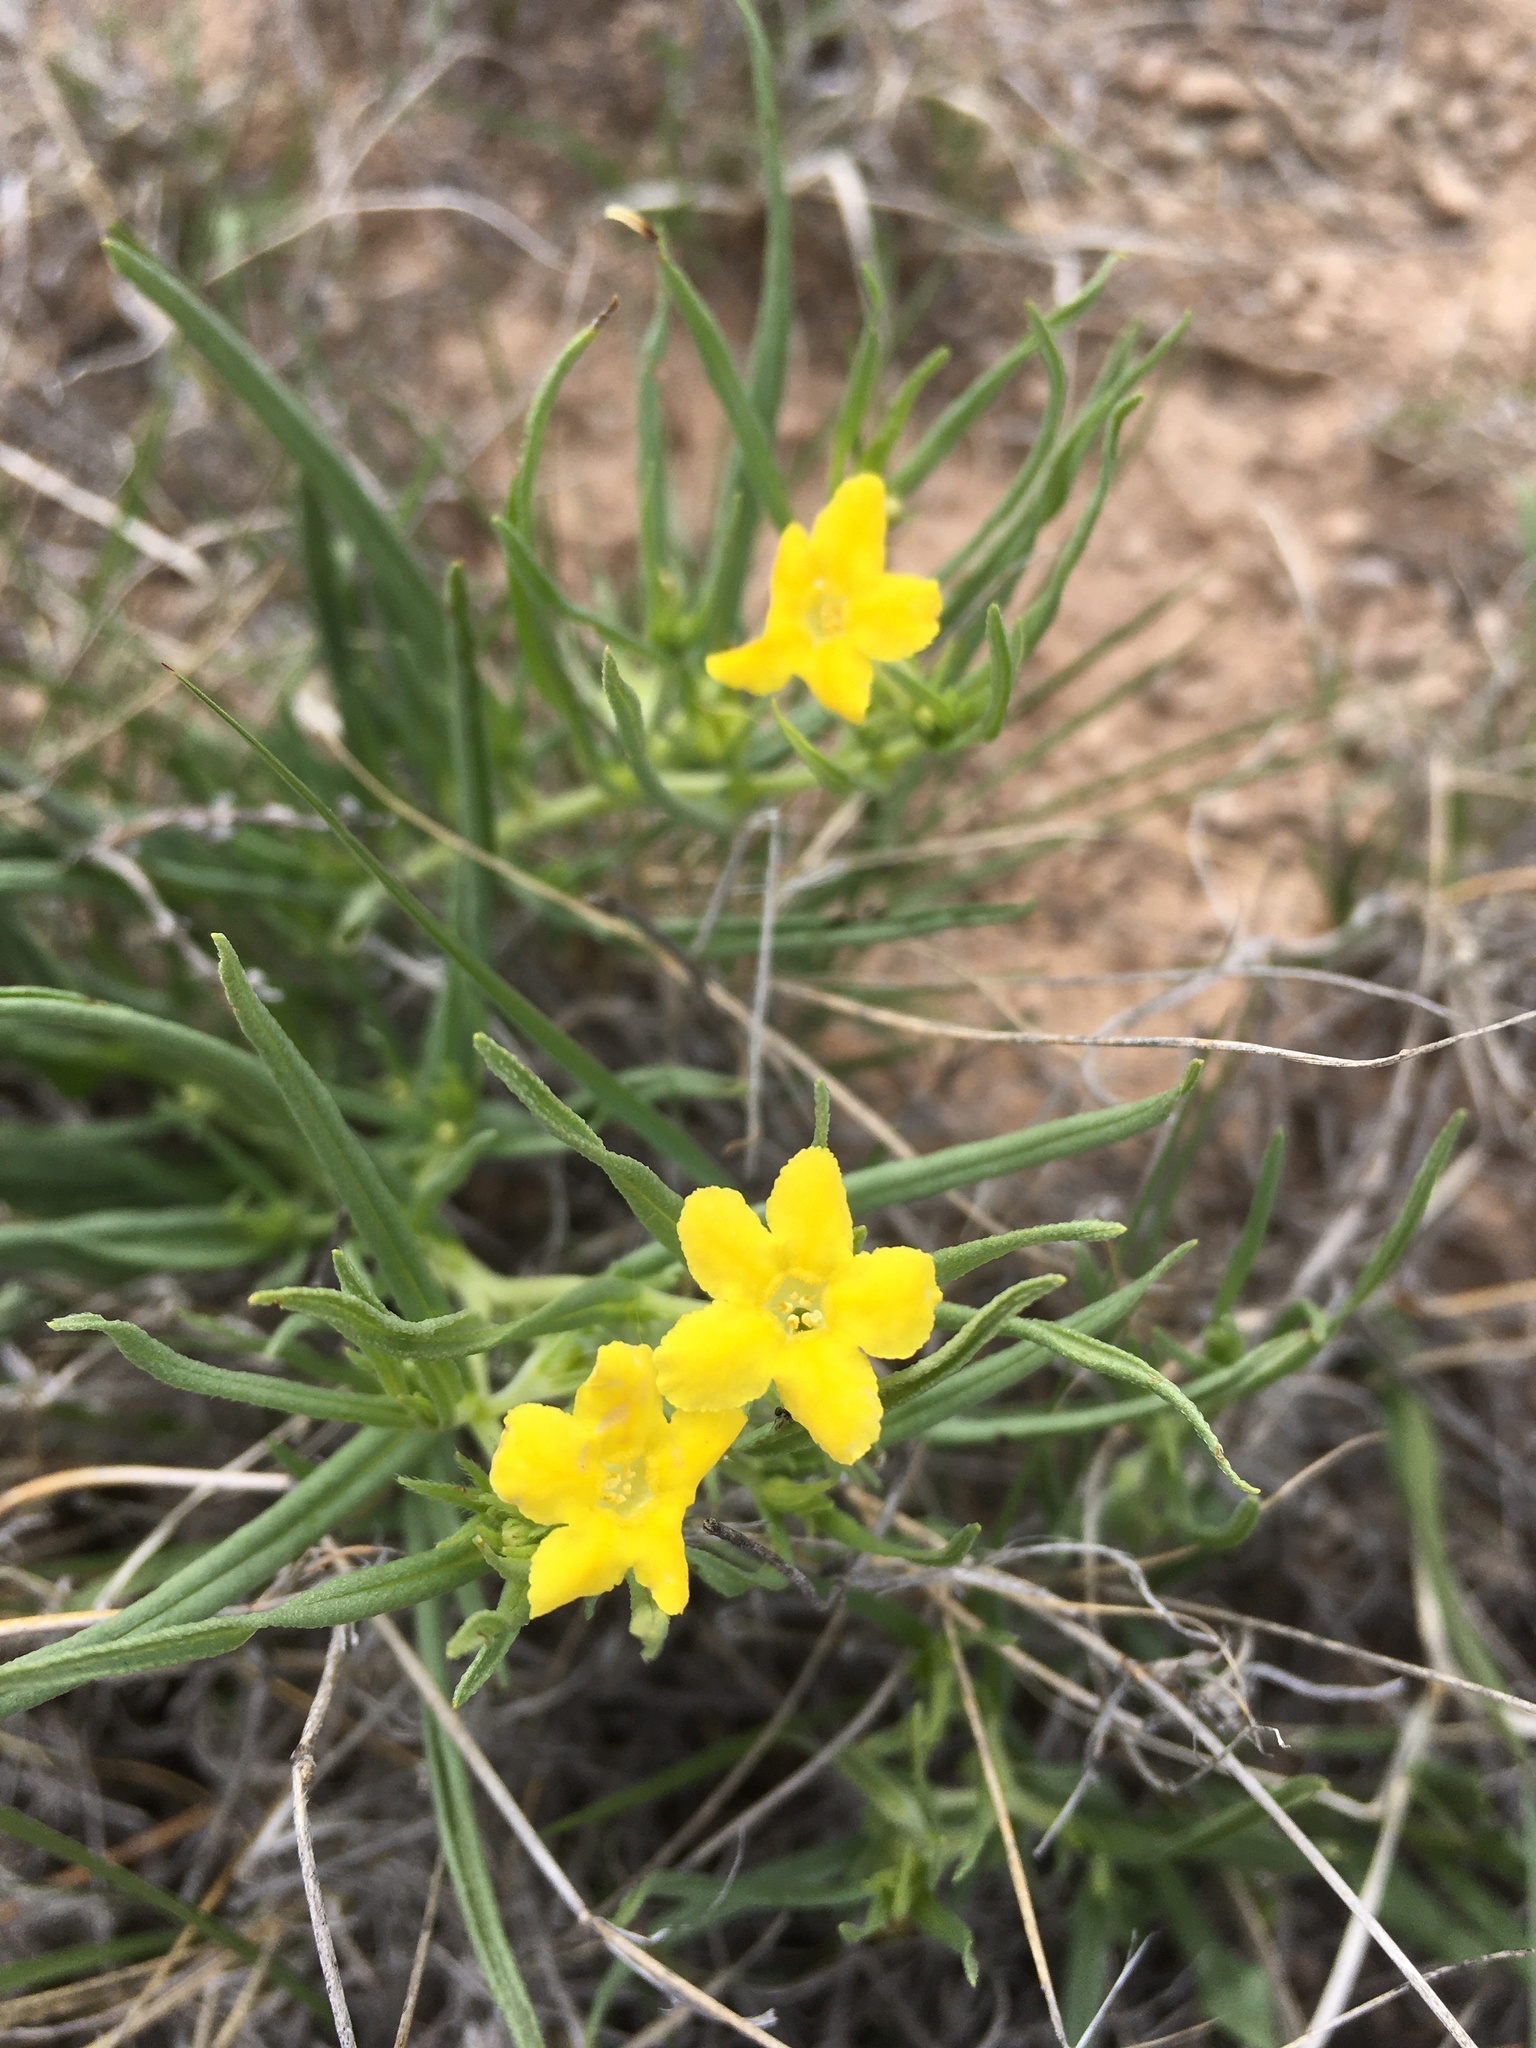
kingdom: Plantae
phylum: Tracheophyta
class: Magnoliopsida
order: Boraginales
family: Boraginaceae
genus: Lithospermum
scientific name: Lithospermum incisum
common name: Fringed gromwell
